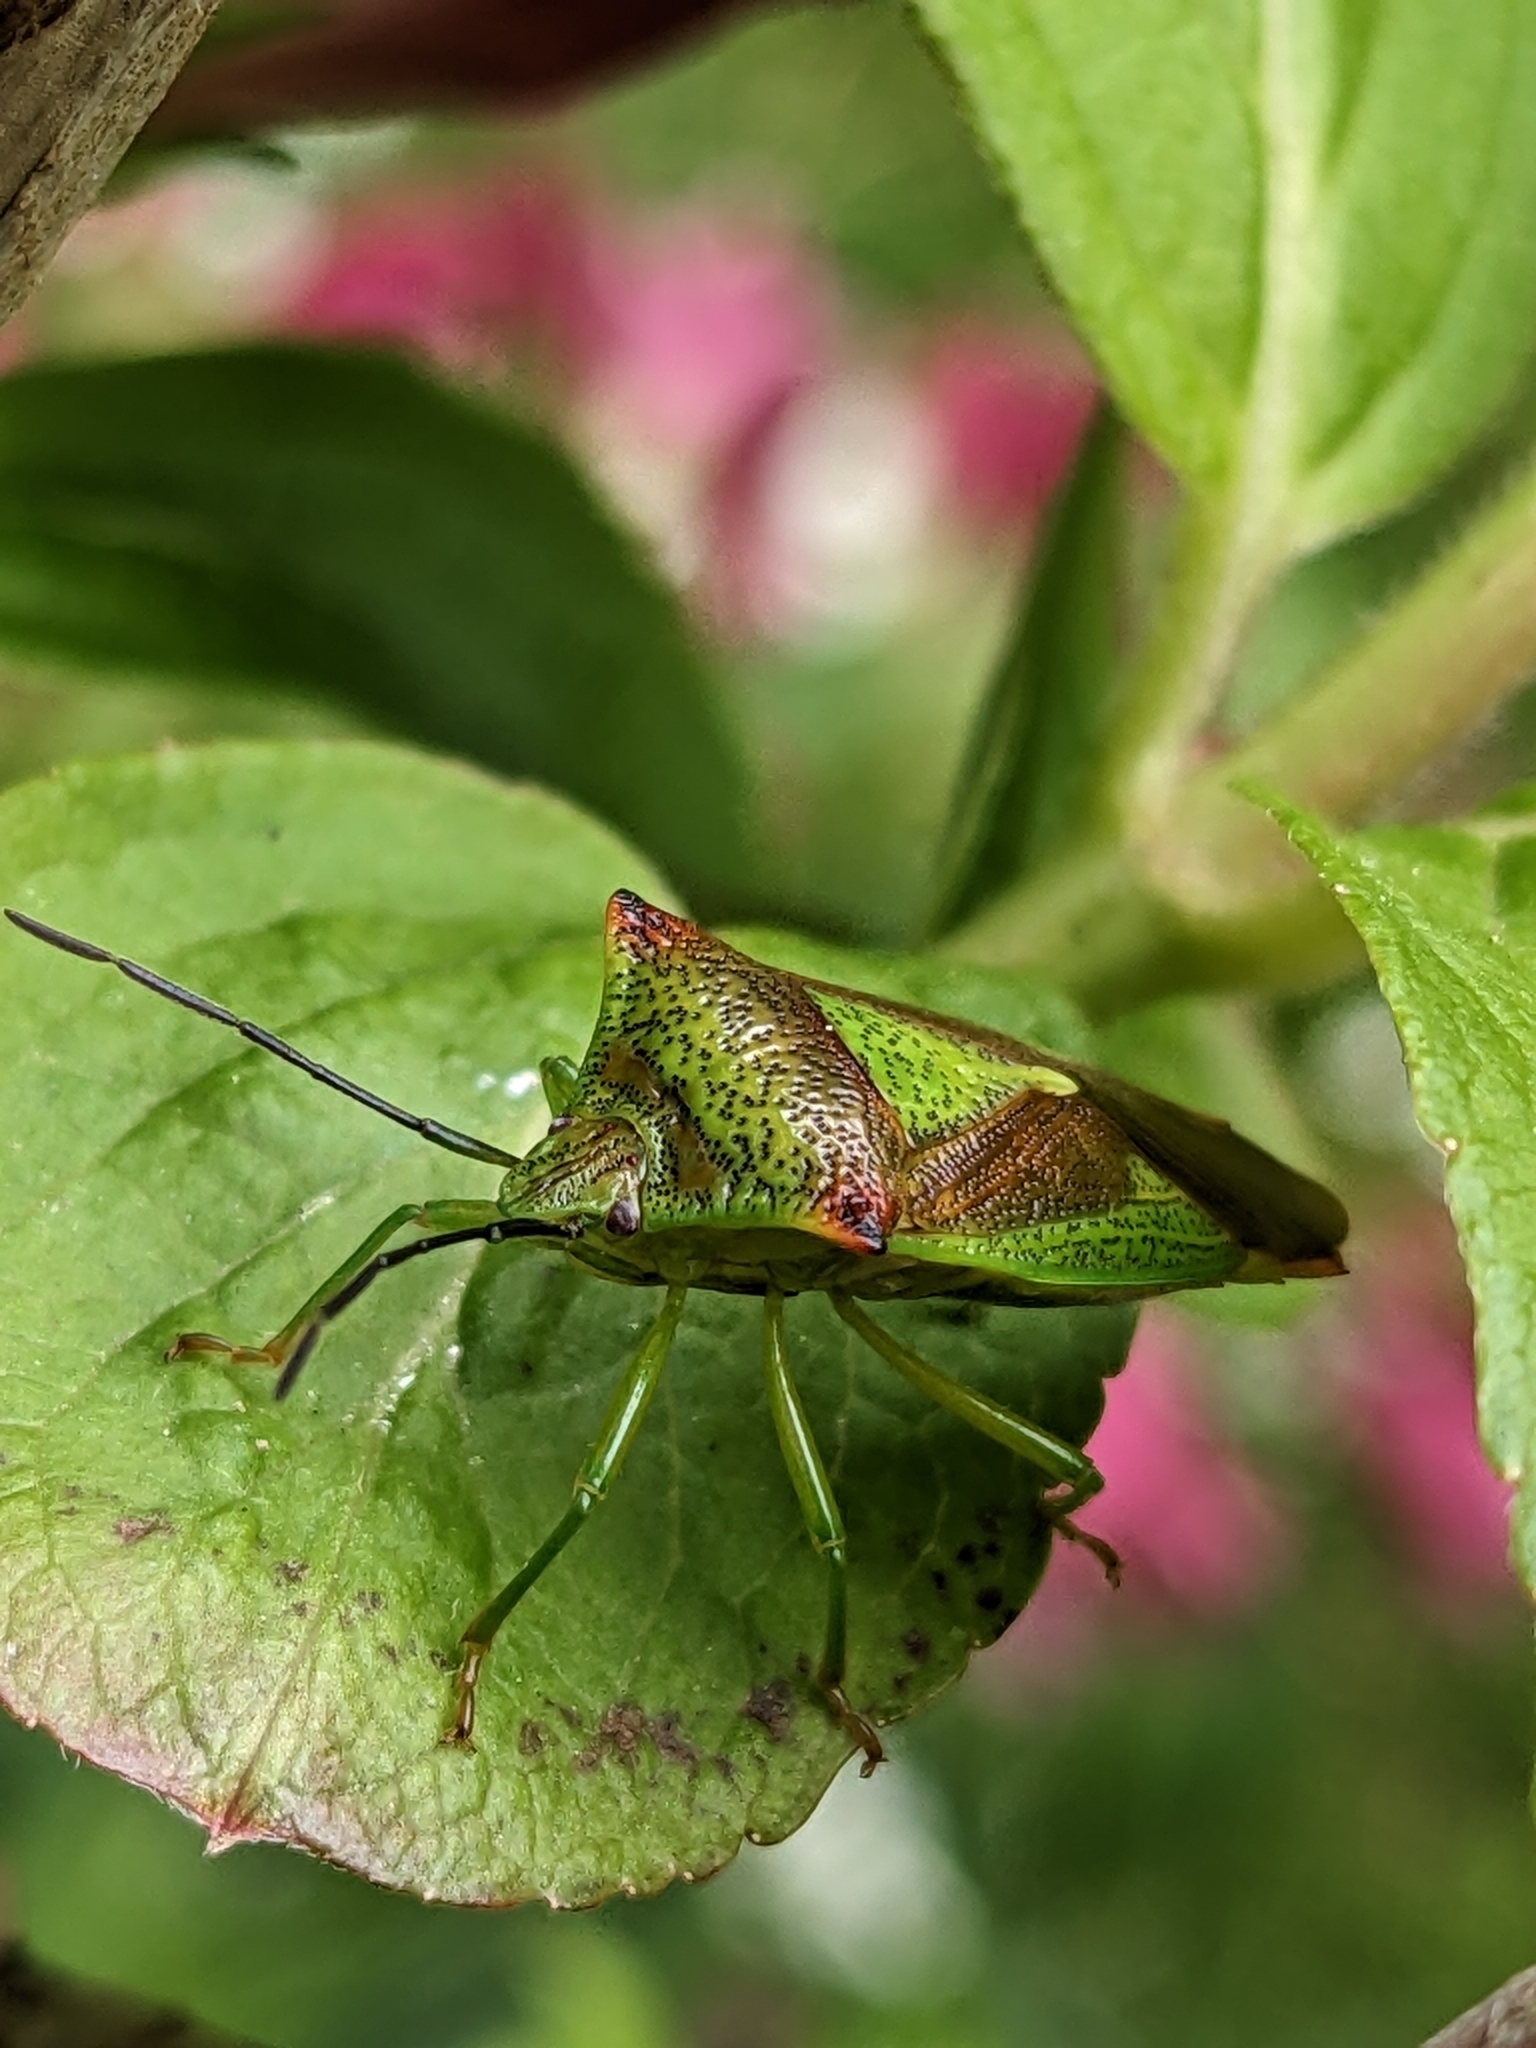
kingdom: Animalia
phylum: Arthropoda
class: Insecta
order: Hemiptera
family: Acanthosomatidae
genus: Acanthosoma
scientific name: Acanthosoma haemorrhoidale
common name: Hawthorn shieldbug
